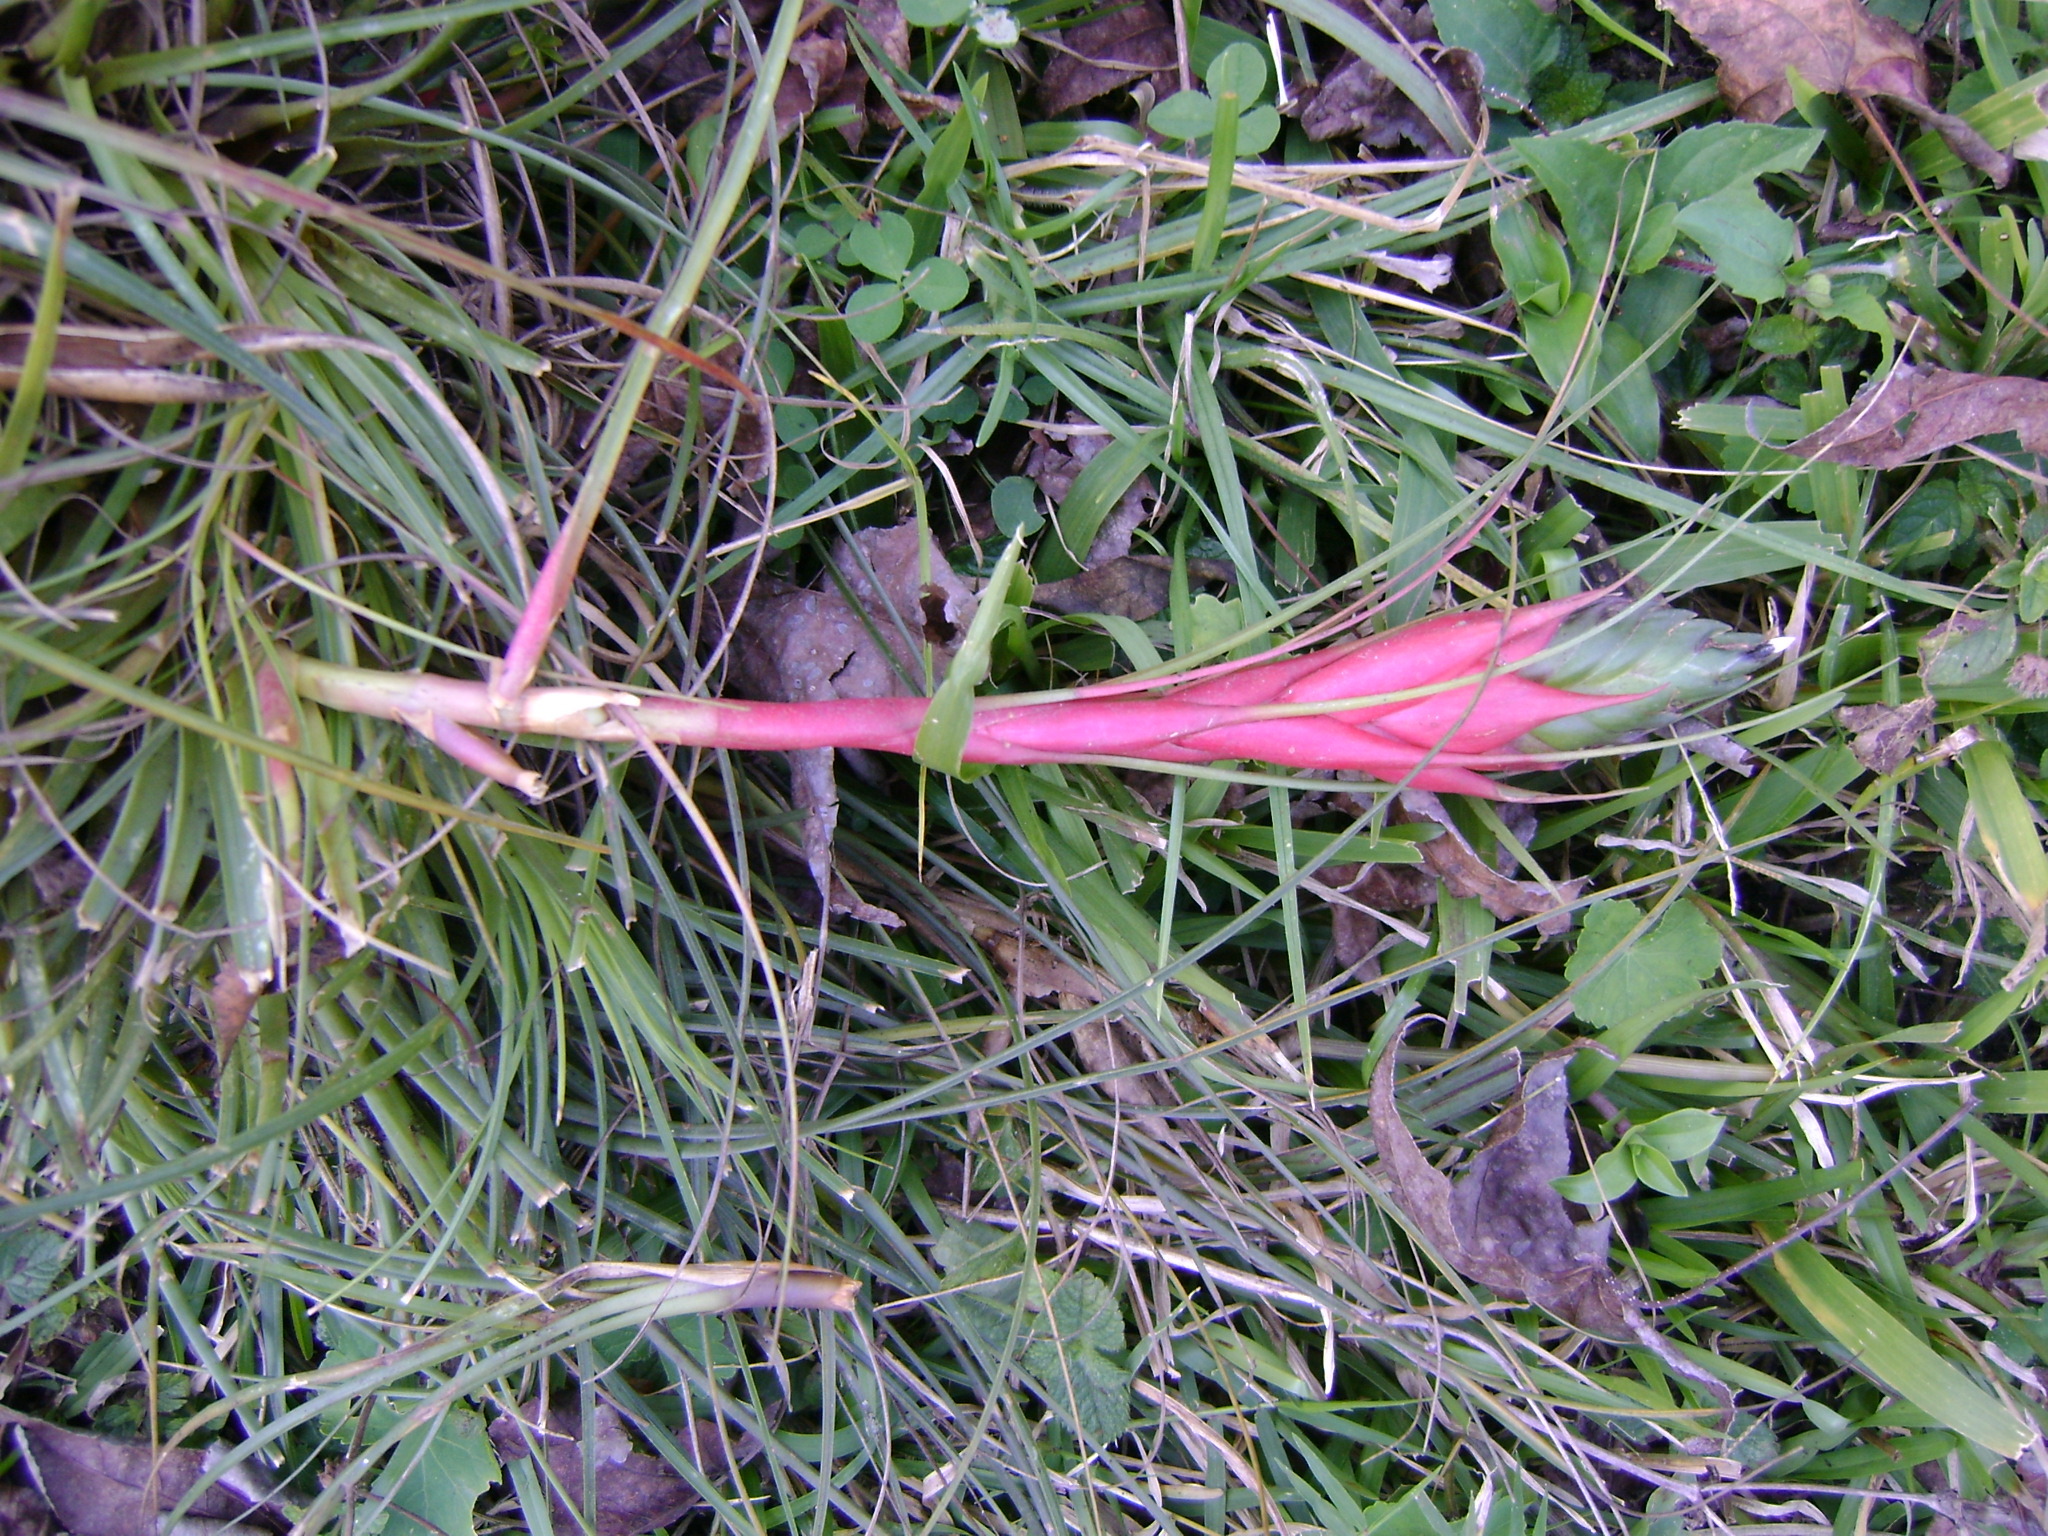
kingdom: Plantae
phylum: Tracheophyta
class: Liliopsida
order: Poales
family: Bromeliaceae
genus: Tillandsia
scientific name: Tillandsia punctulata
